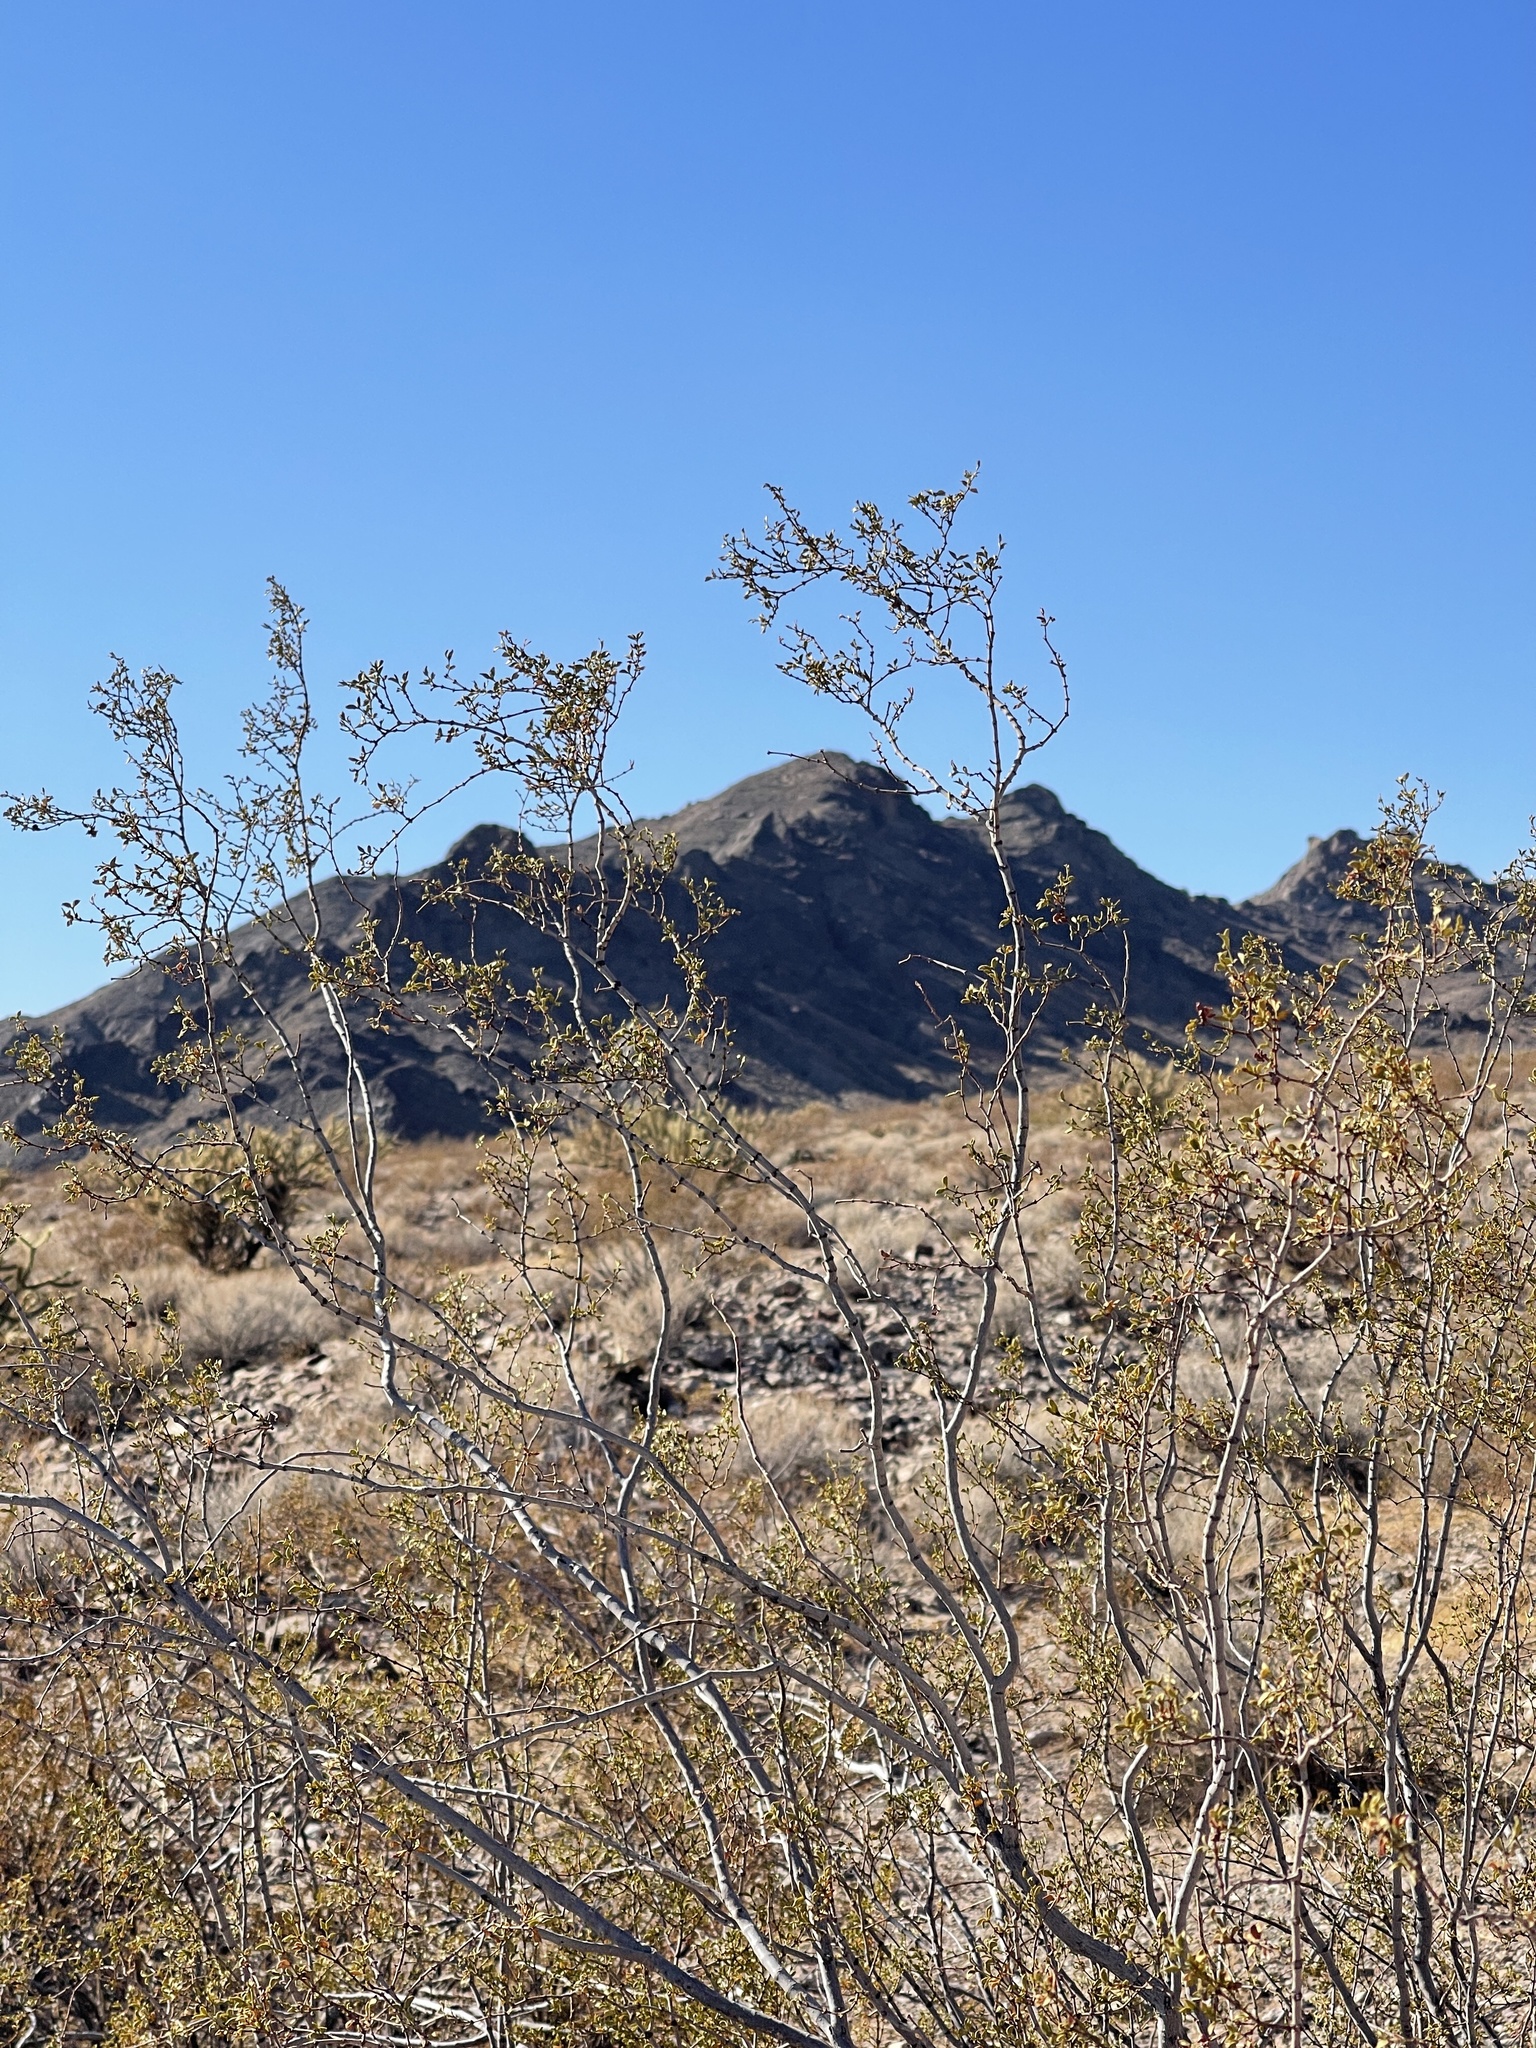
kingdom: Plantae
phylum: Tracheophyta
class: Magnoliopsida
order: Zygophyllales
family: Zygophyllaceae
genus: Larrea
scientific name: Larrea tridentata
